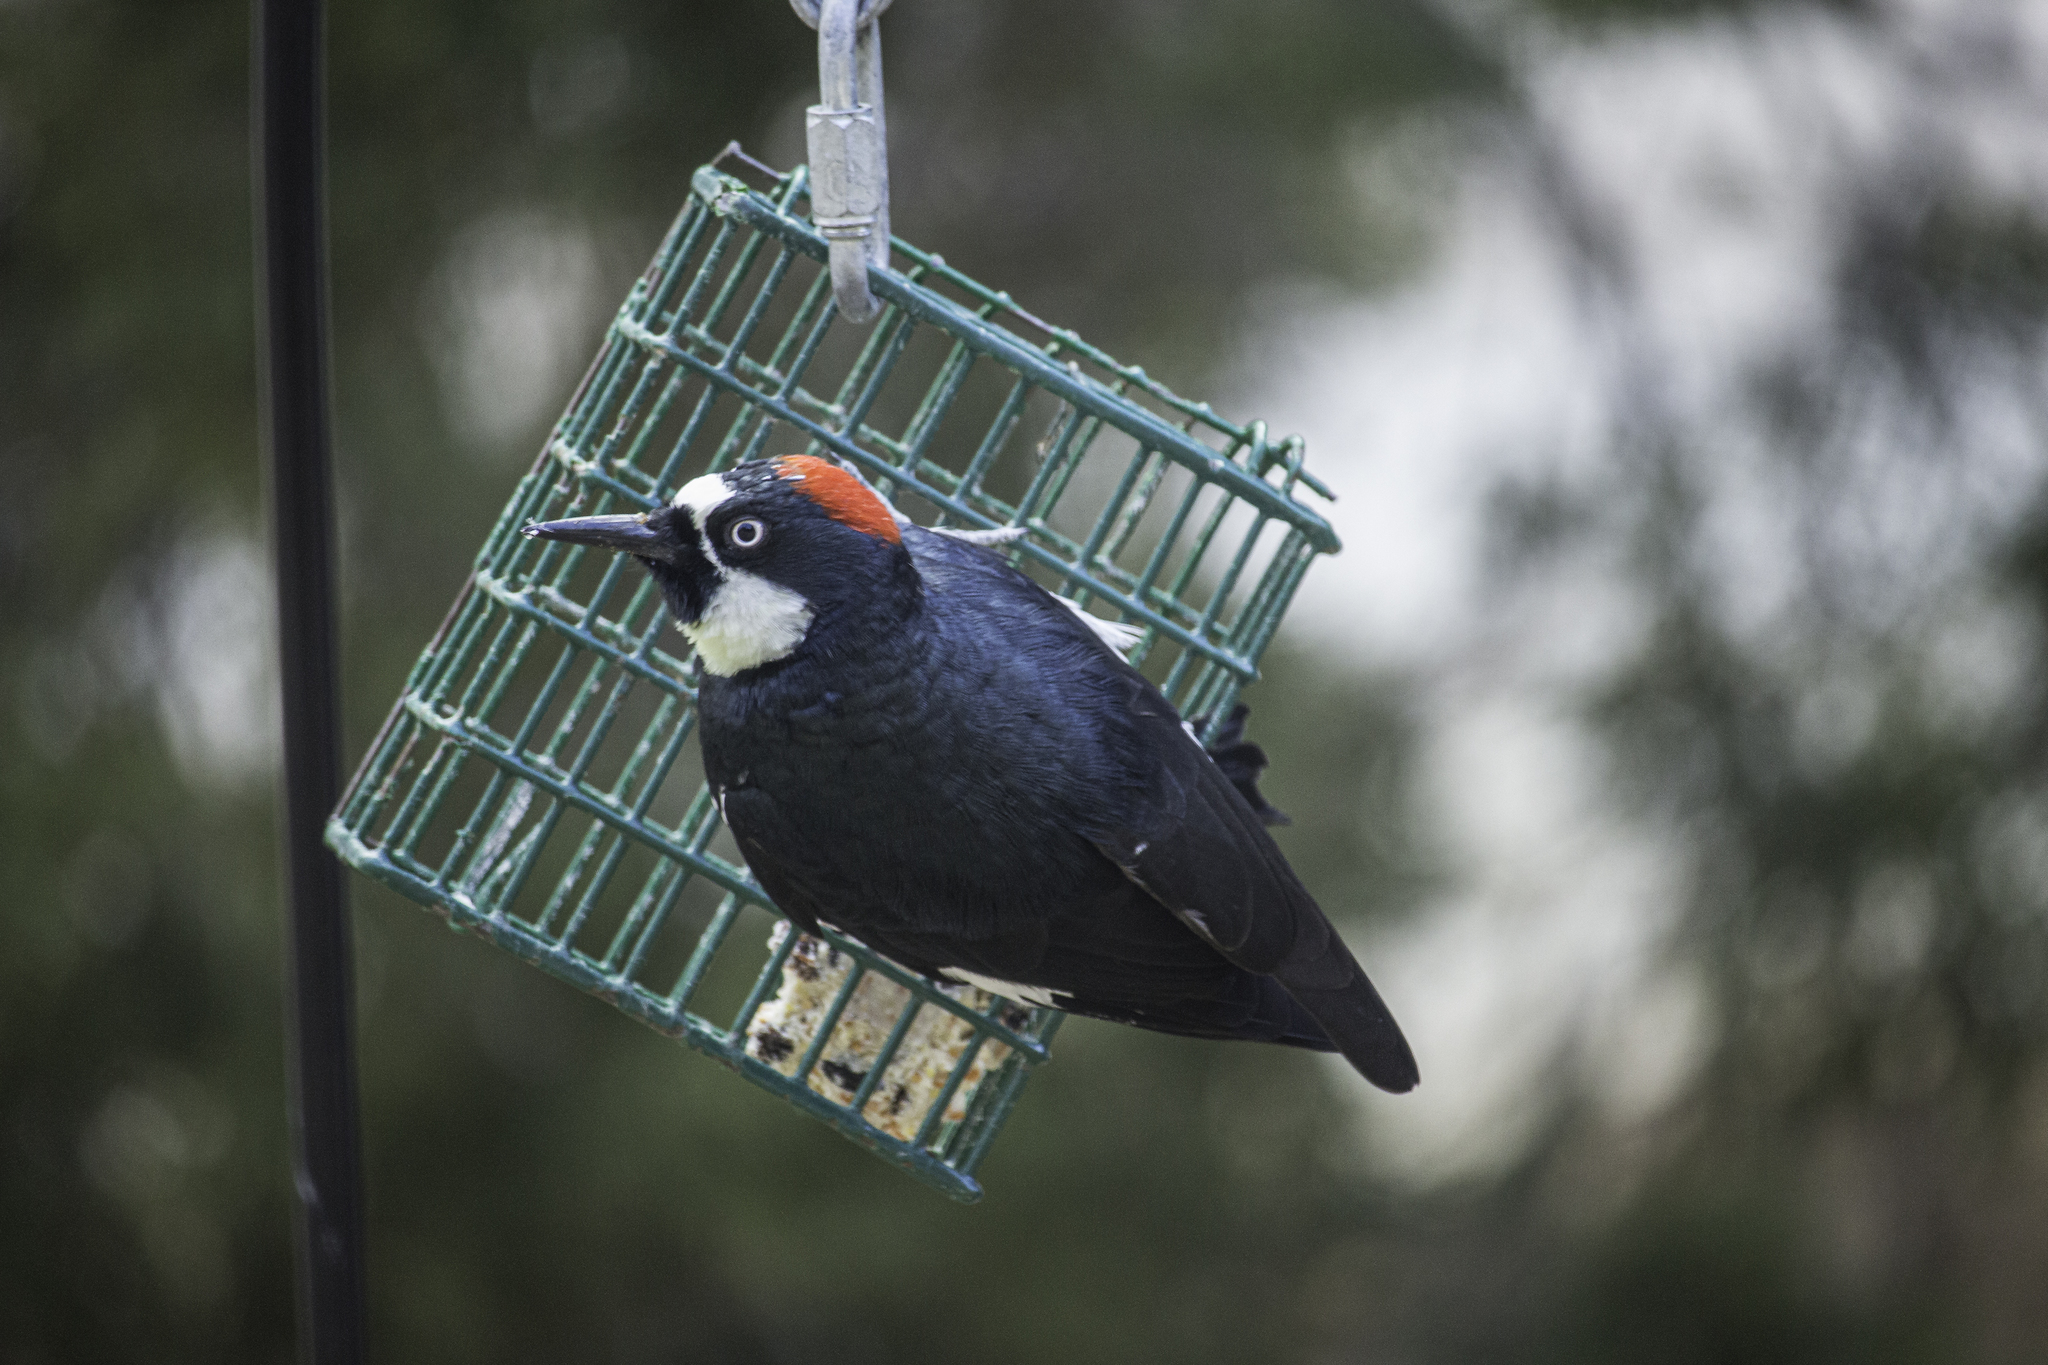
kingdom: Animalia
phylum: Chordata
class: Aves
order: Piciformes
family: Picidae
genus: Melanerpes
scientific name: Melanerpes formicivorus
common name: Acorn woodpecker
